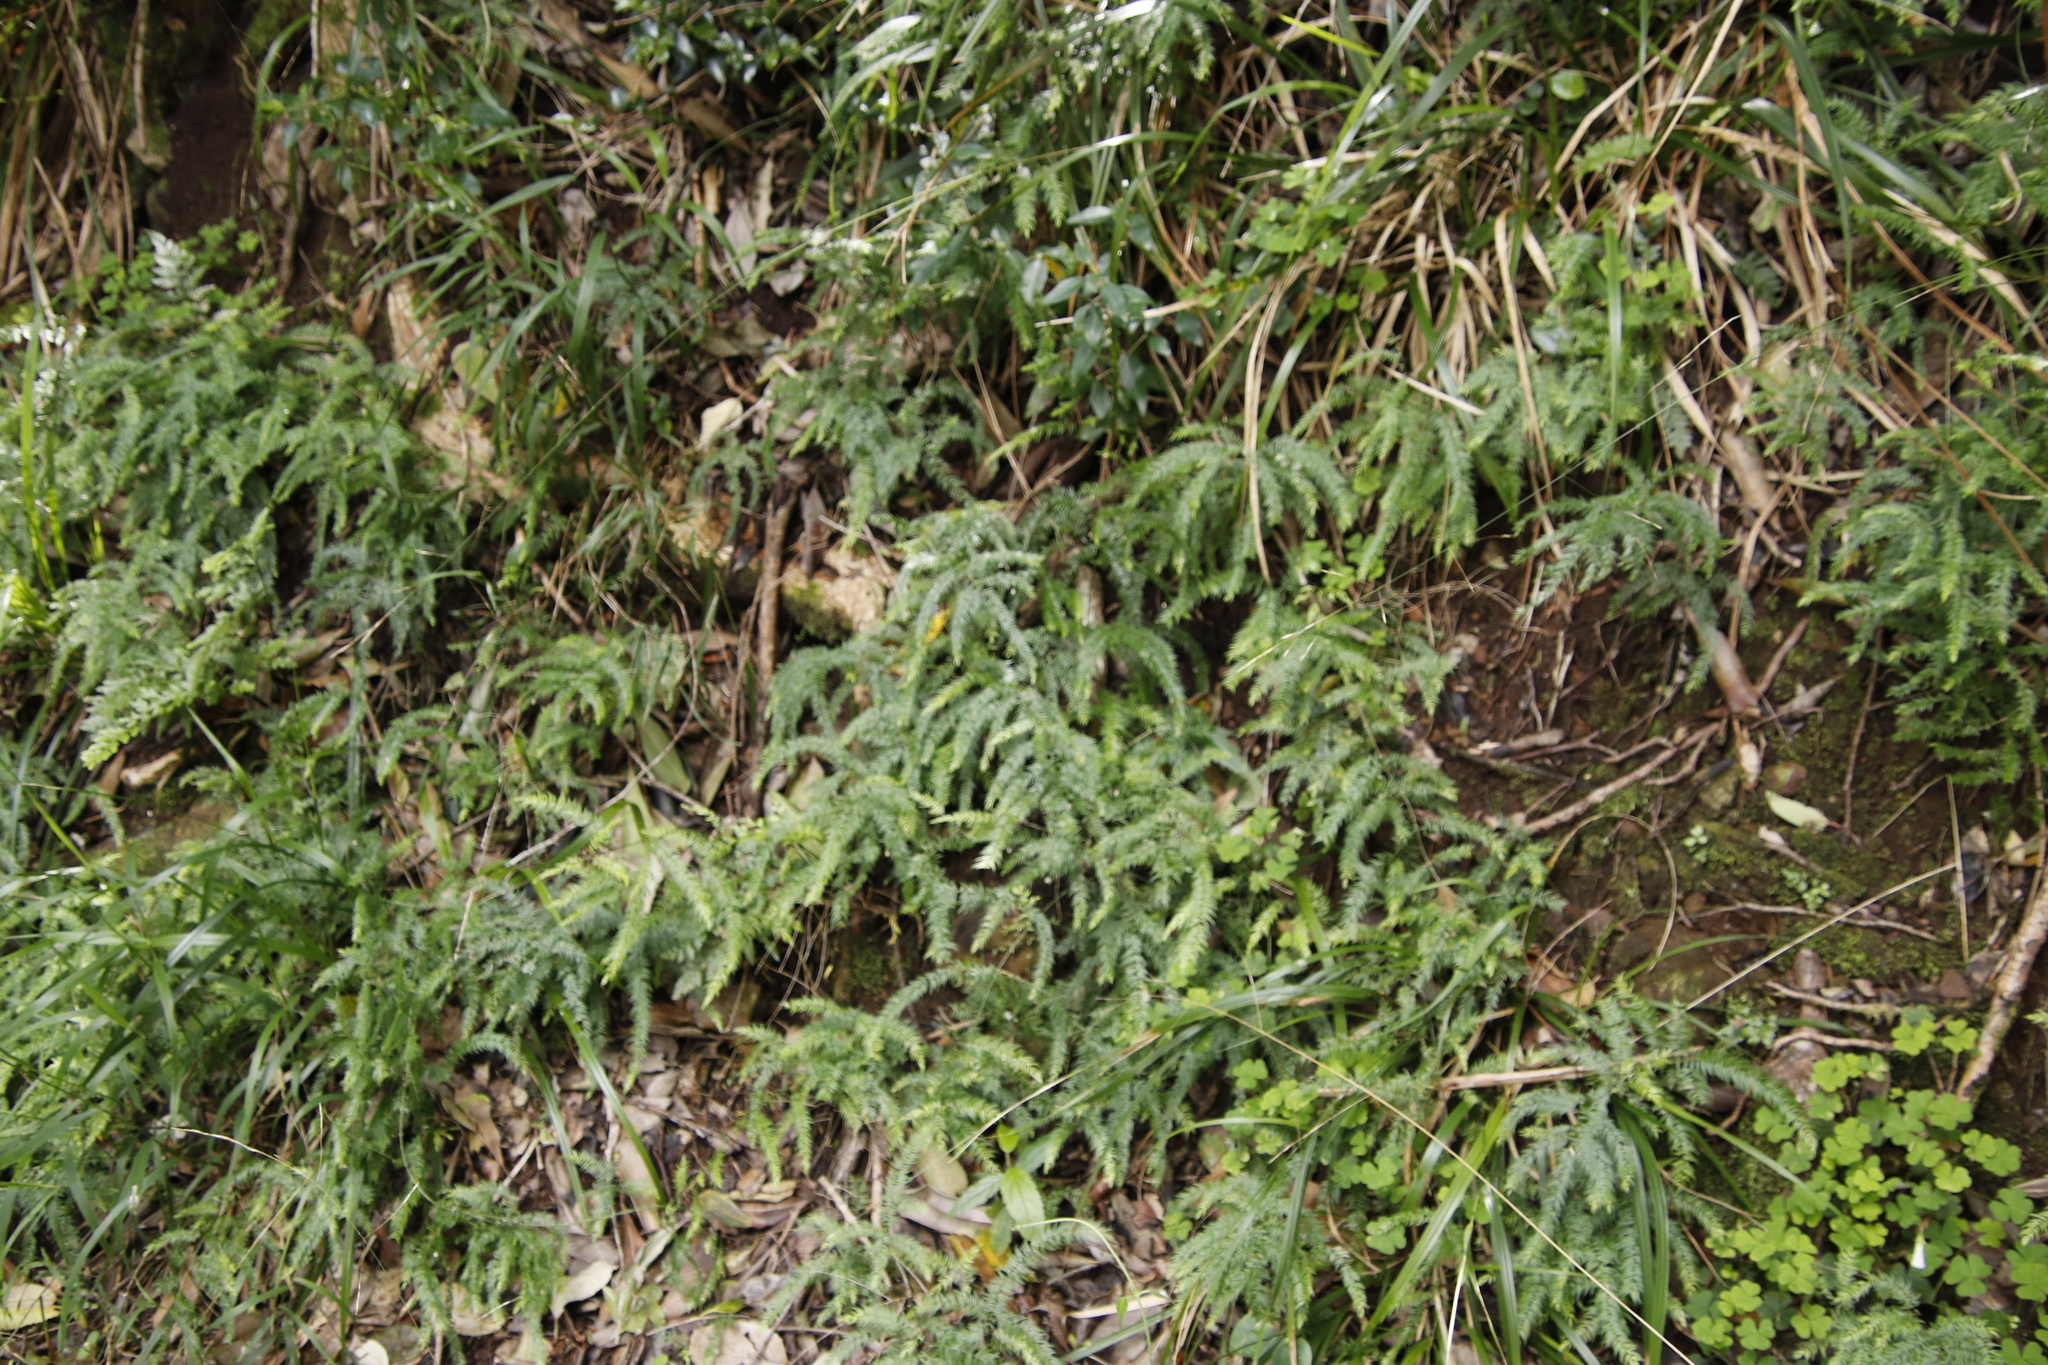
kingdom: Plantae
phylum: Tracheophyta
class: Liliopsida
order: Asparagales
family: Asparagaceae
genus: Asparagus
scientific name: Asparagus scandens
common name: Asparagus-fern
